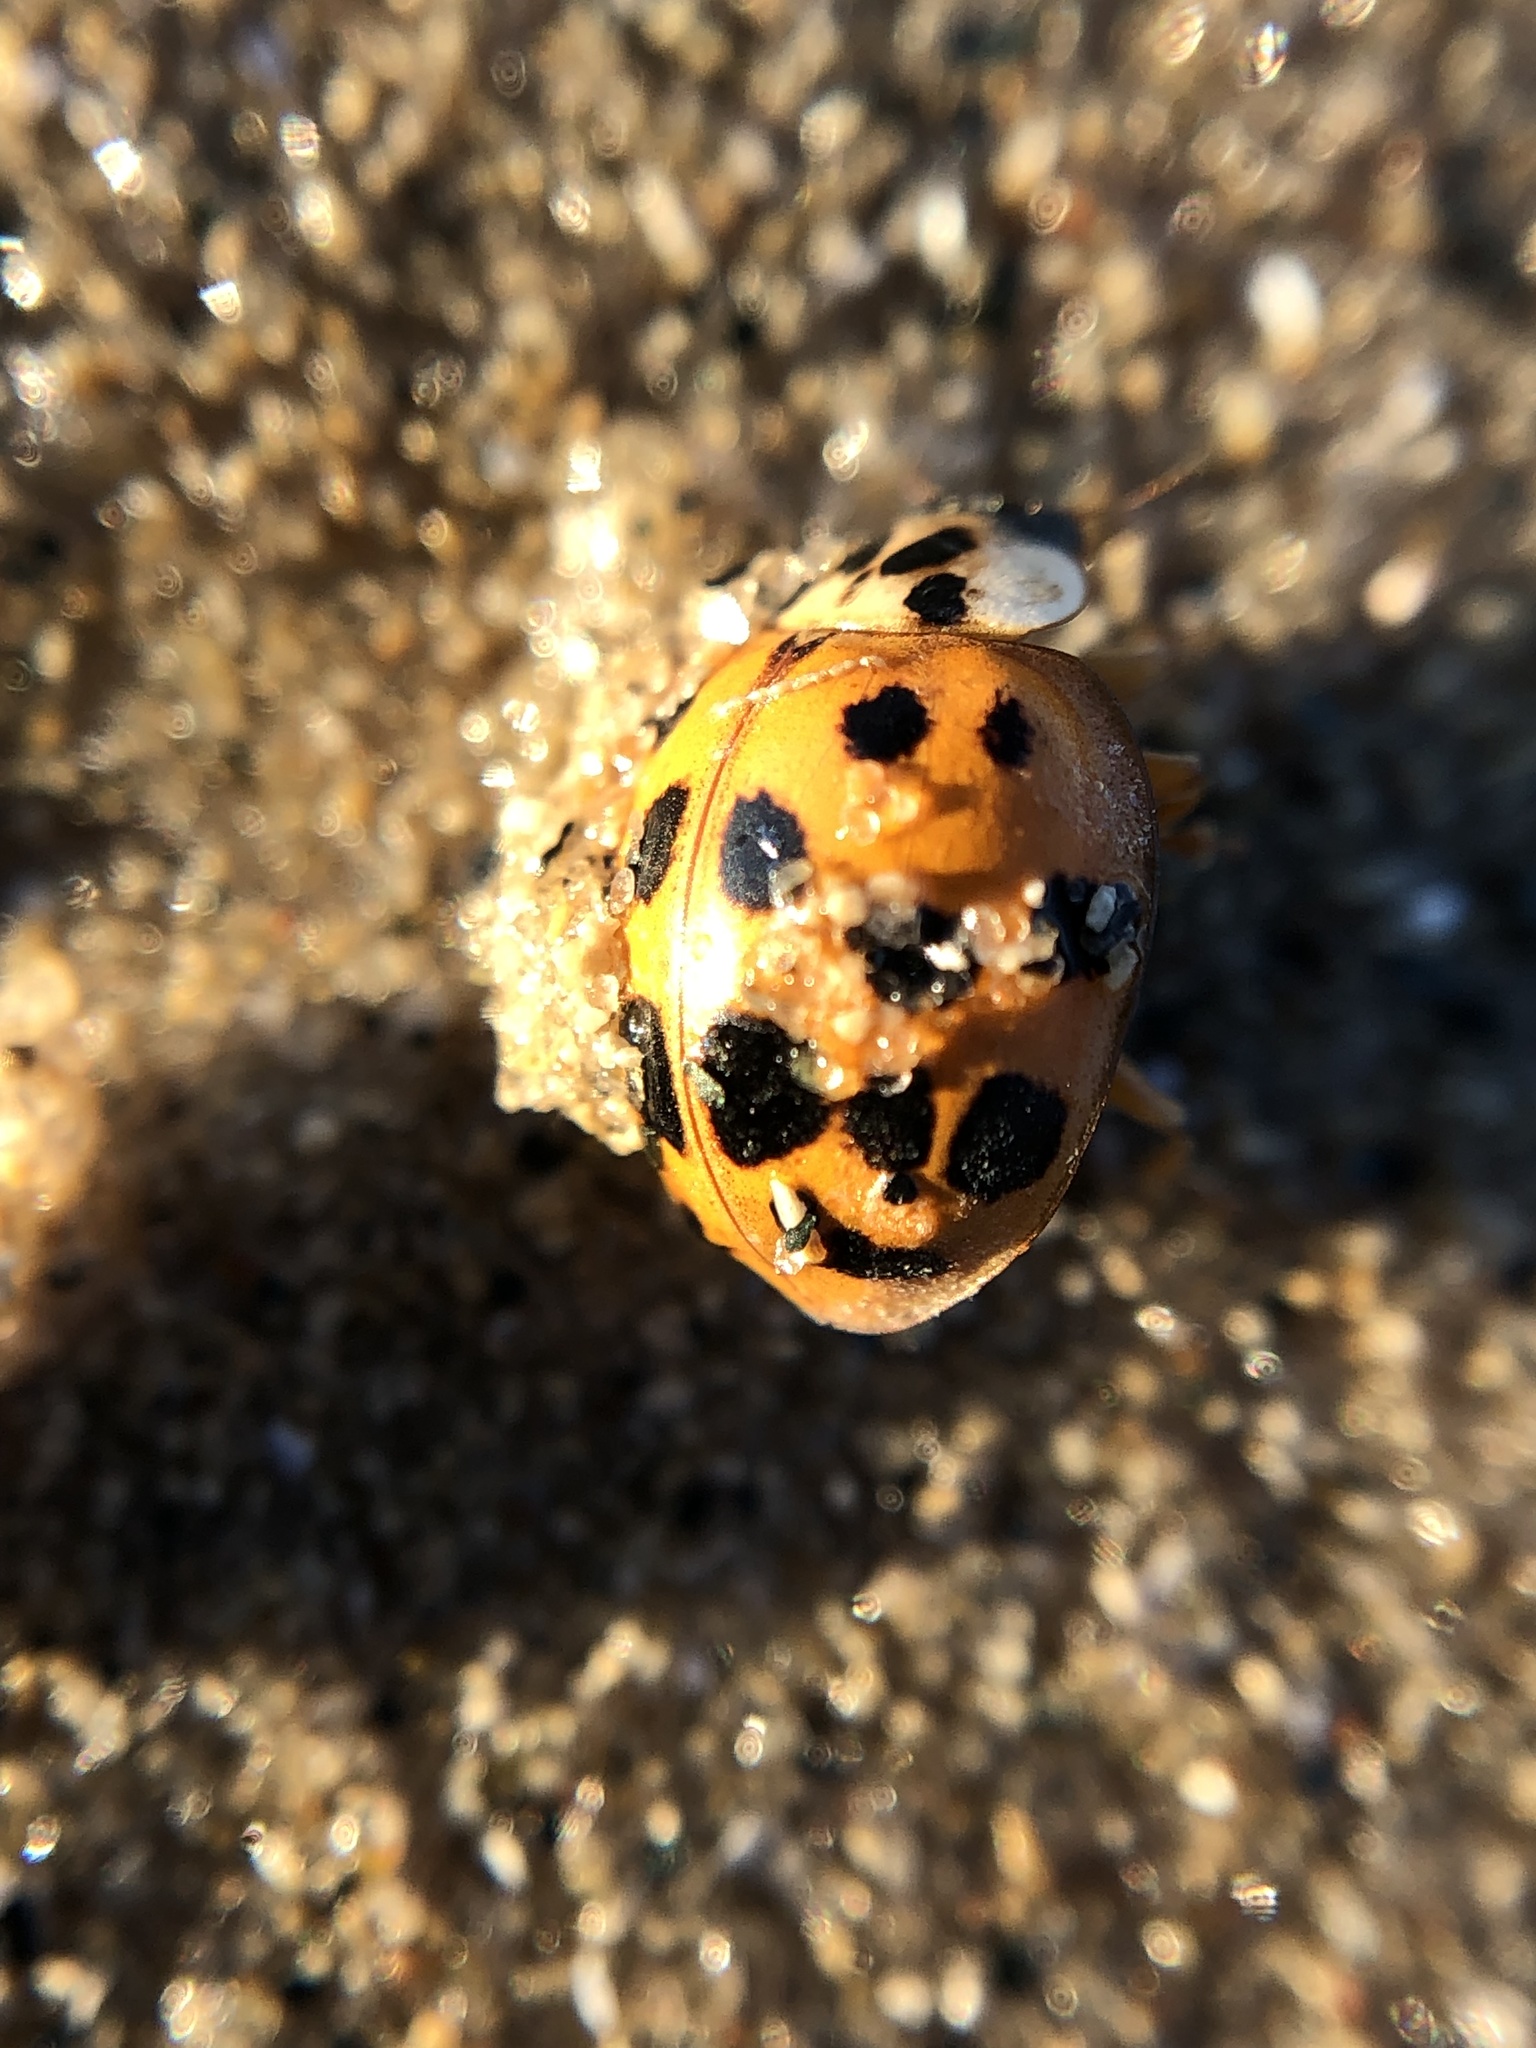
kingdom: Animalia
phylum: Arthropoda
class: Insecta
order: Coleoptera
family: Coccinellidae
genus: Harmonia
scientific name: Harmonia axyridis
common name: Harlequin ladybird
